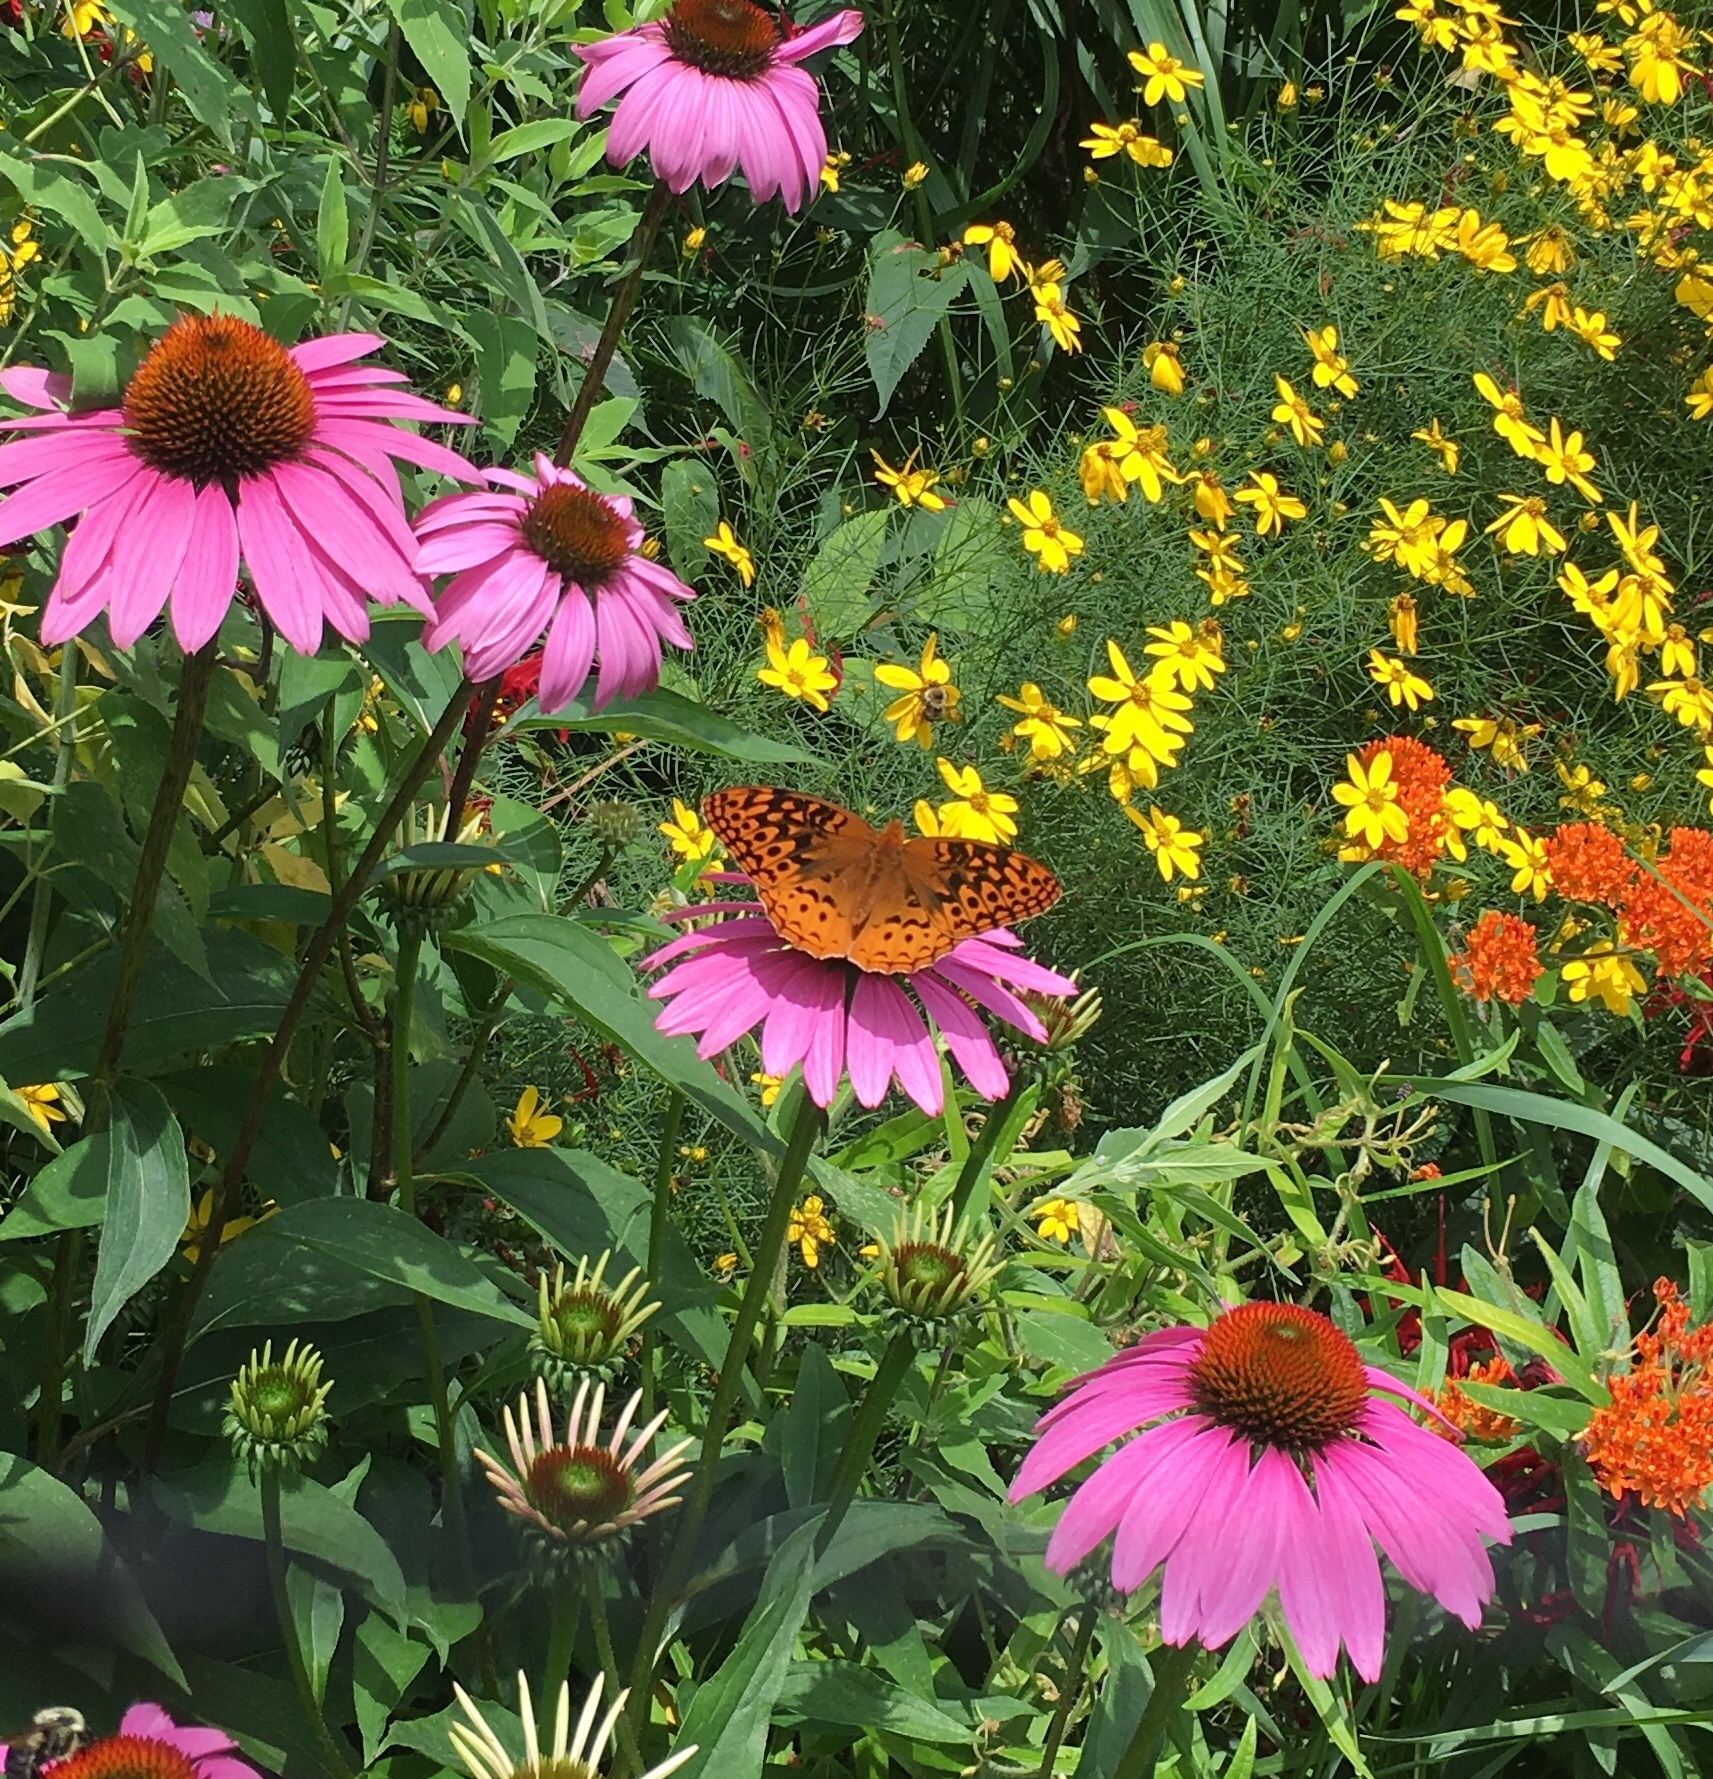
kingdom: Animalia
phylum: Arthropoda
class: Insecta
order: Lepidoptera
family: Nymphalidae
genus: Speyeria
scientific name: Speyeria cybele
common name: Great spangled fritillary
